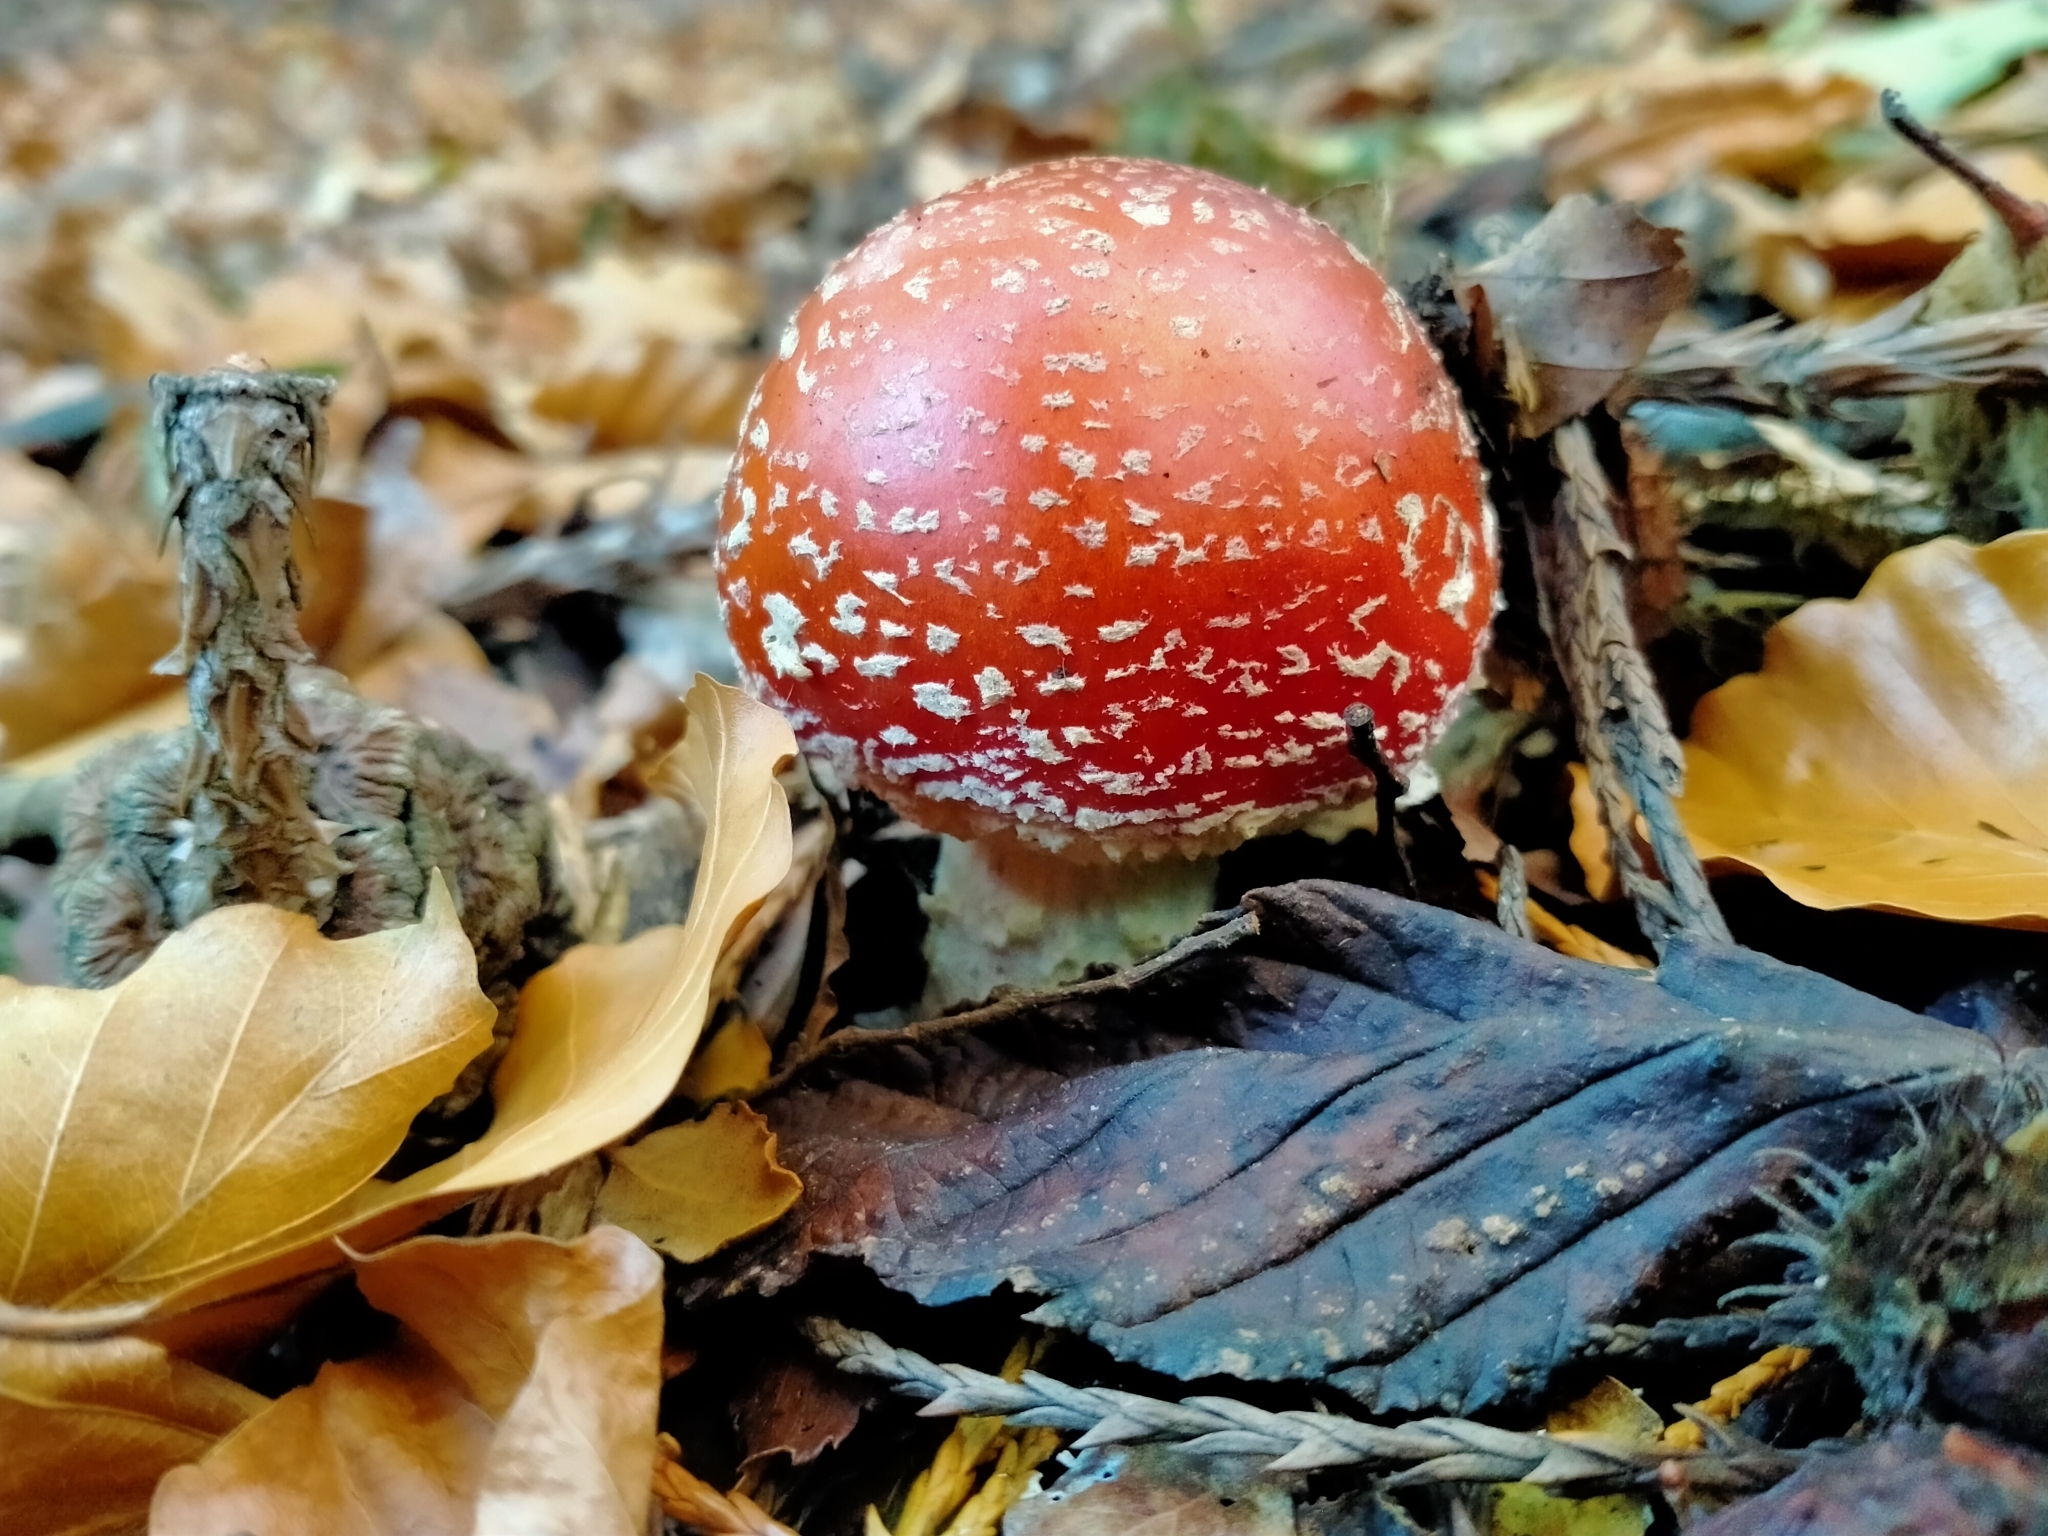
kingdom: Fungi
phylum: Basidiomycota
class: Agaricomycetes
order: Agaricales
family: Amanitaceae
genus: Amanita
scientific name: Amanita muscaria
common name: Fly agaric
